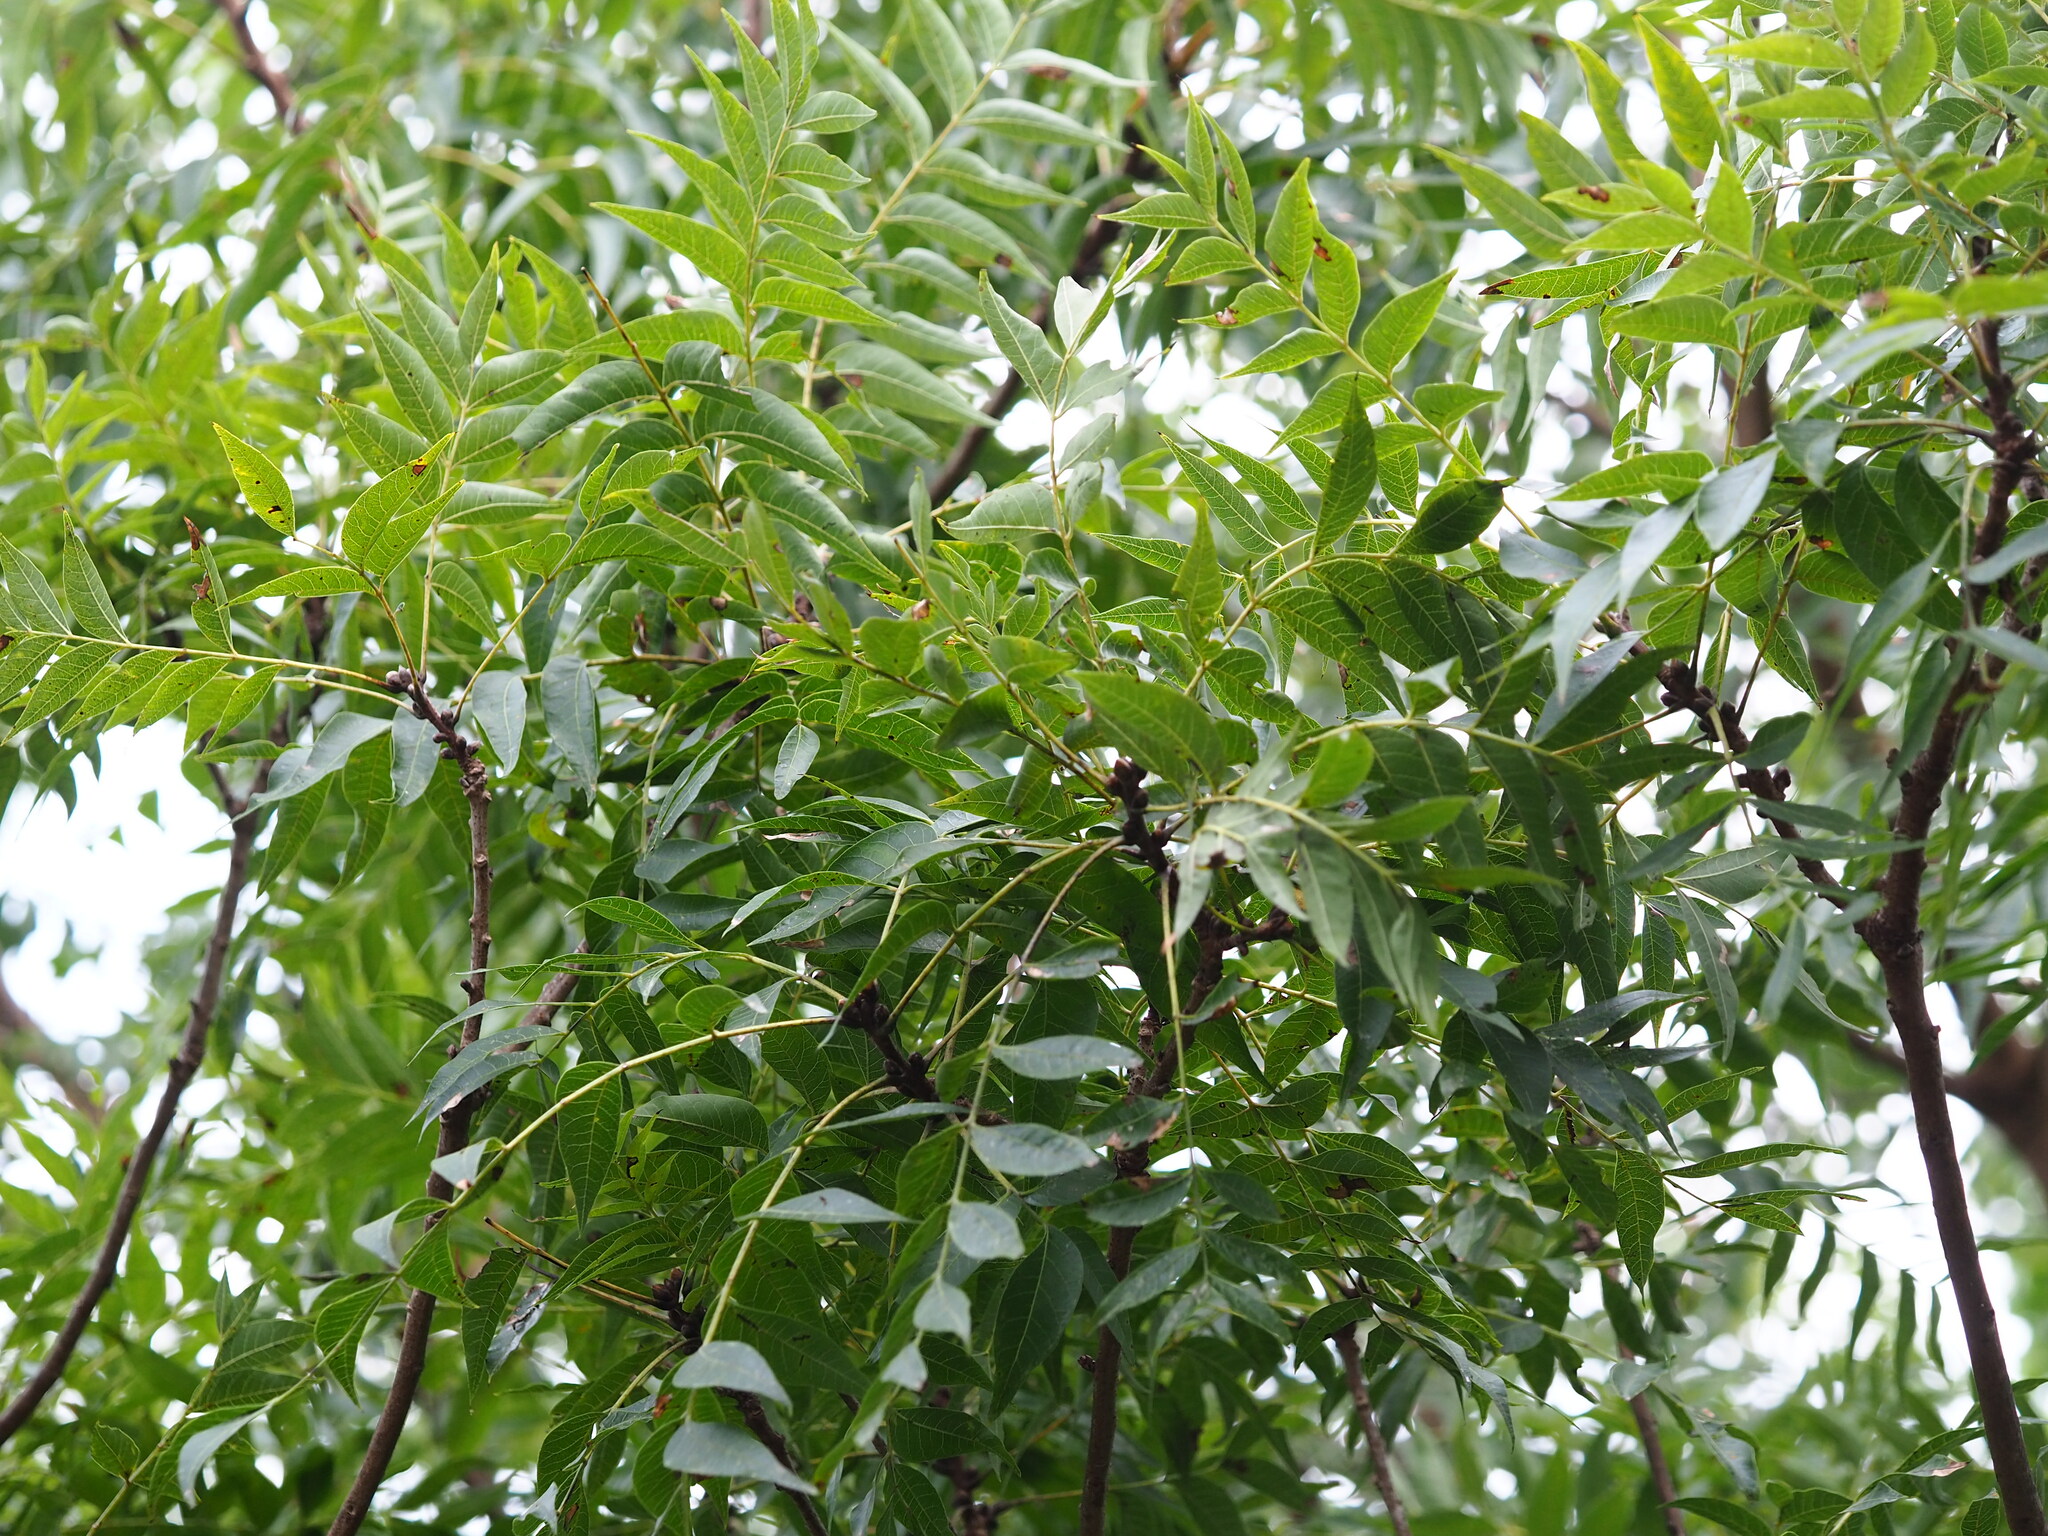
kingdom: Plantae
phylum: Tracheophyta
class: Magnoliopsida
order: Sapindales
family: Anacardiaceae
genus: Pistacia
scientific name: Pistacia chinensis
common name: Chinese pistache
